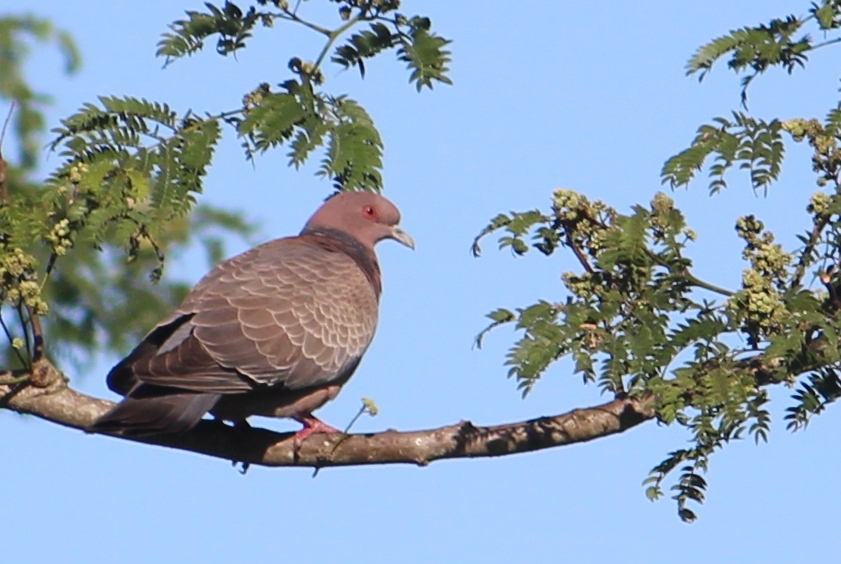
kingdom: Animalia
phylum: Chordata
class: Aves
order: Columbiformes
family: Columbidae
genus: Patagioenas
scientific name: Patagioenas picazuro
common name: Picazuro pigeon
